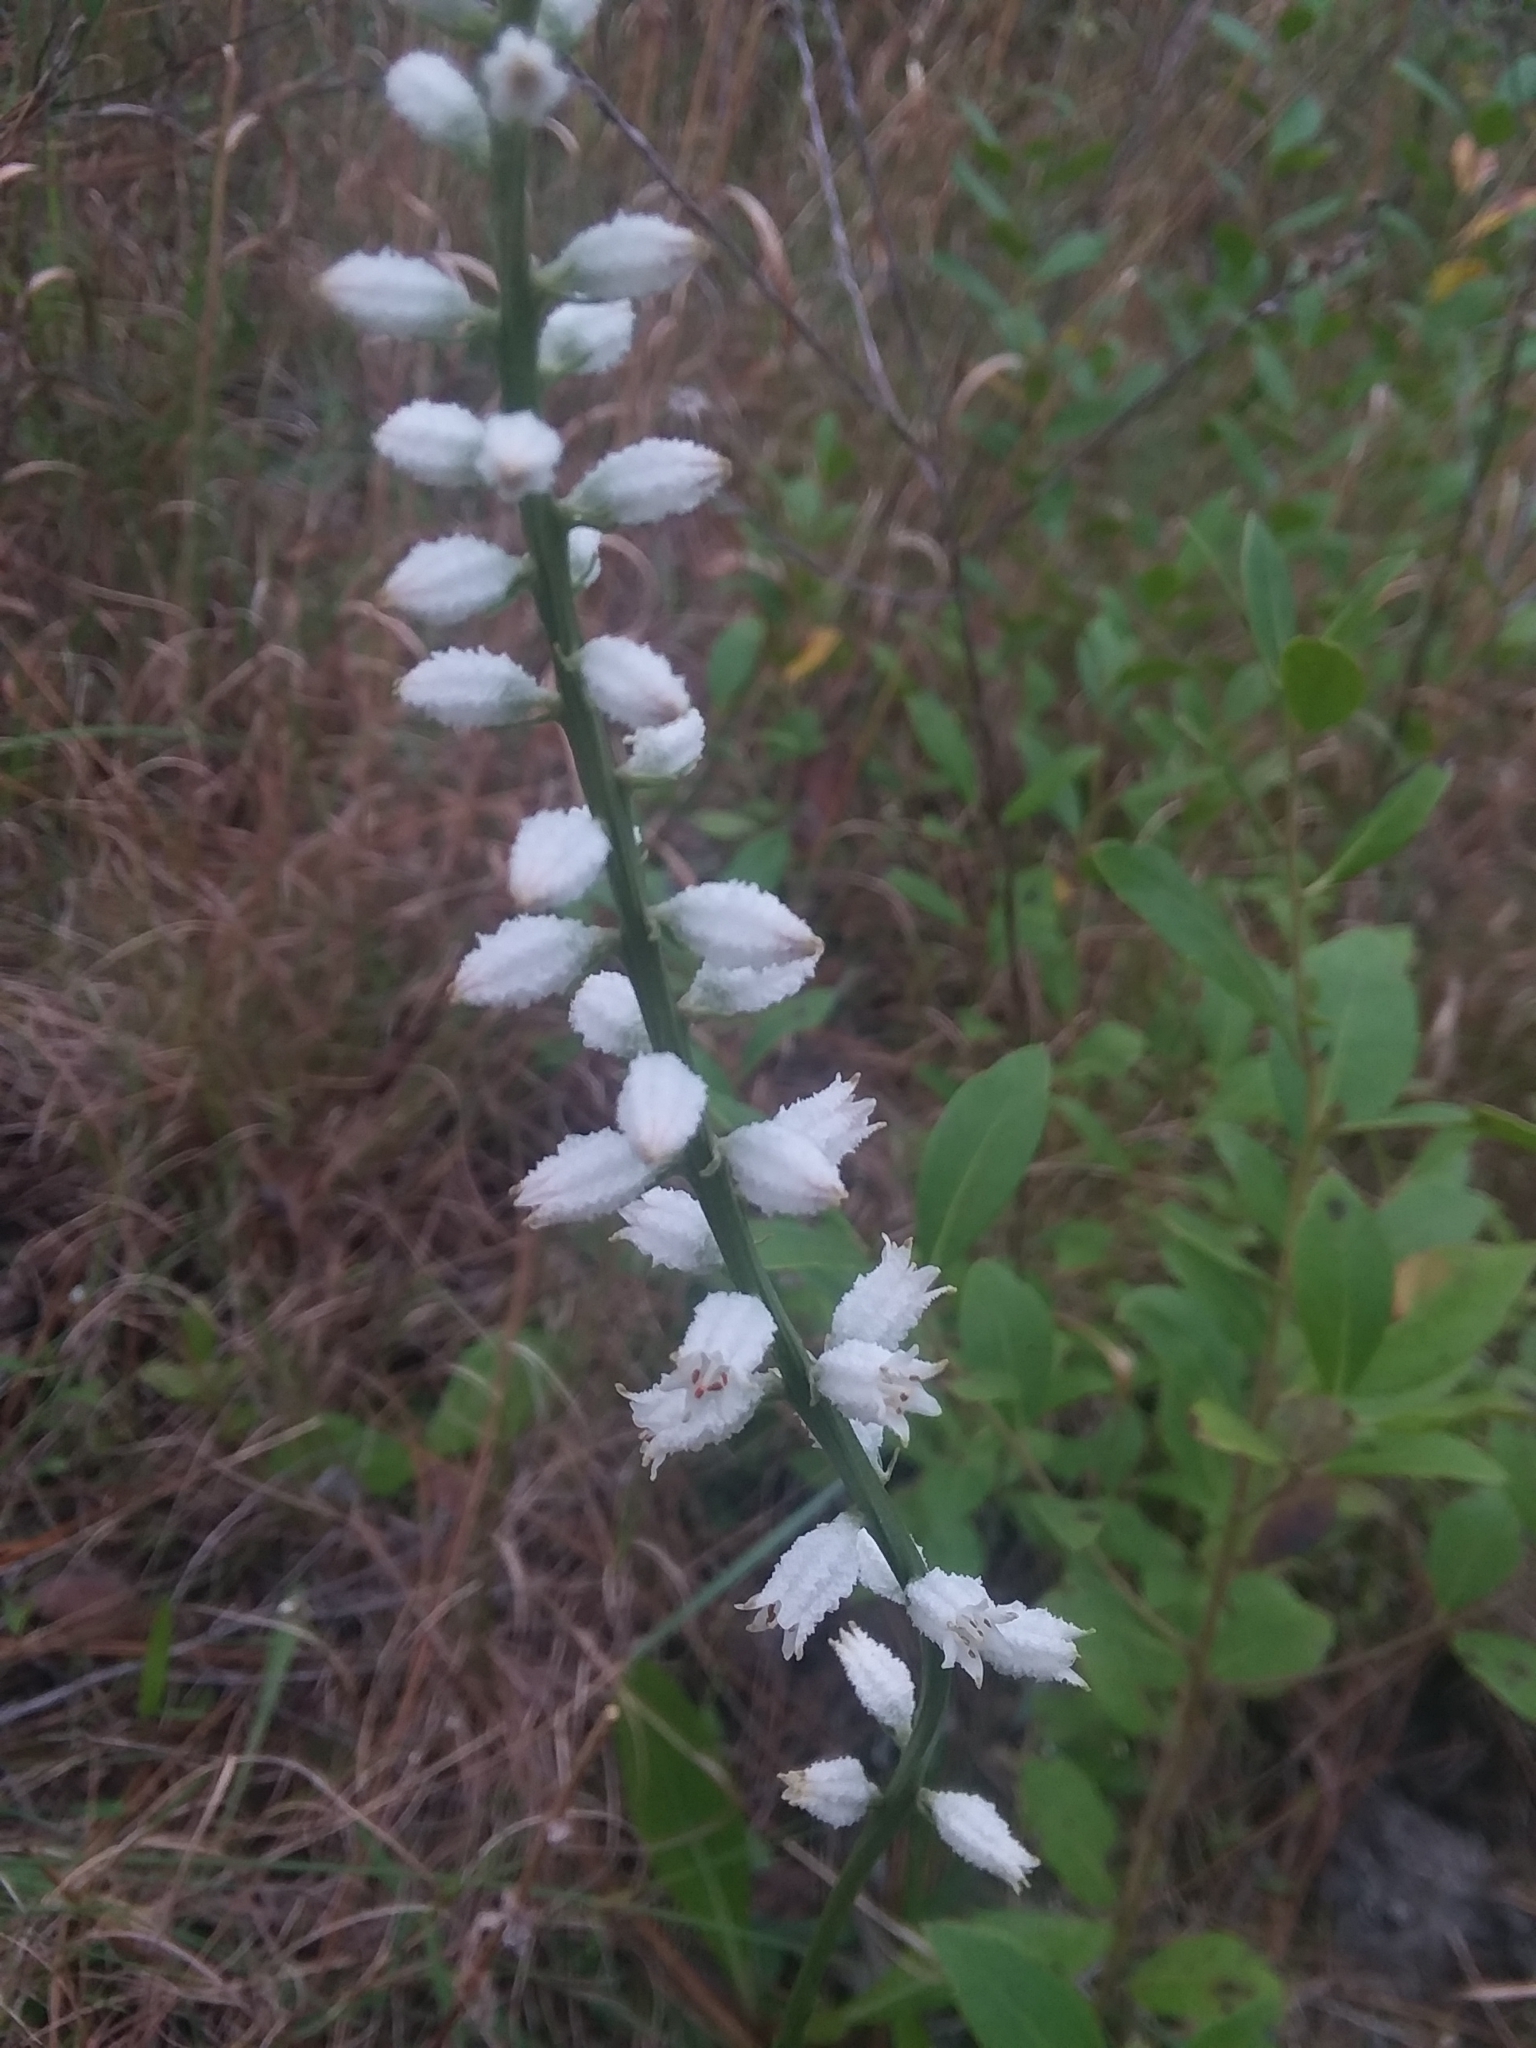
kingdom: Plantae
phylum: Tracheophyta
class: Liliopsida
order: Dioscoreales
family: Nartheciaceae
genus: Aletris
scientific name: Aletris farinosa
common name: Colicroot
